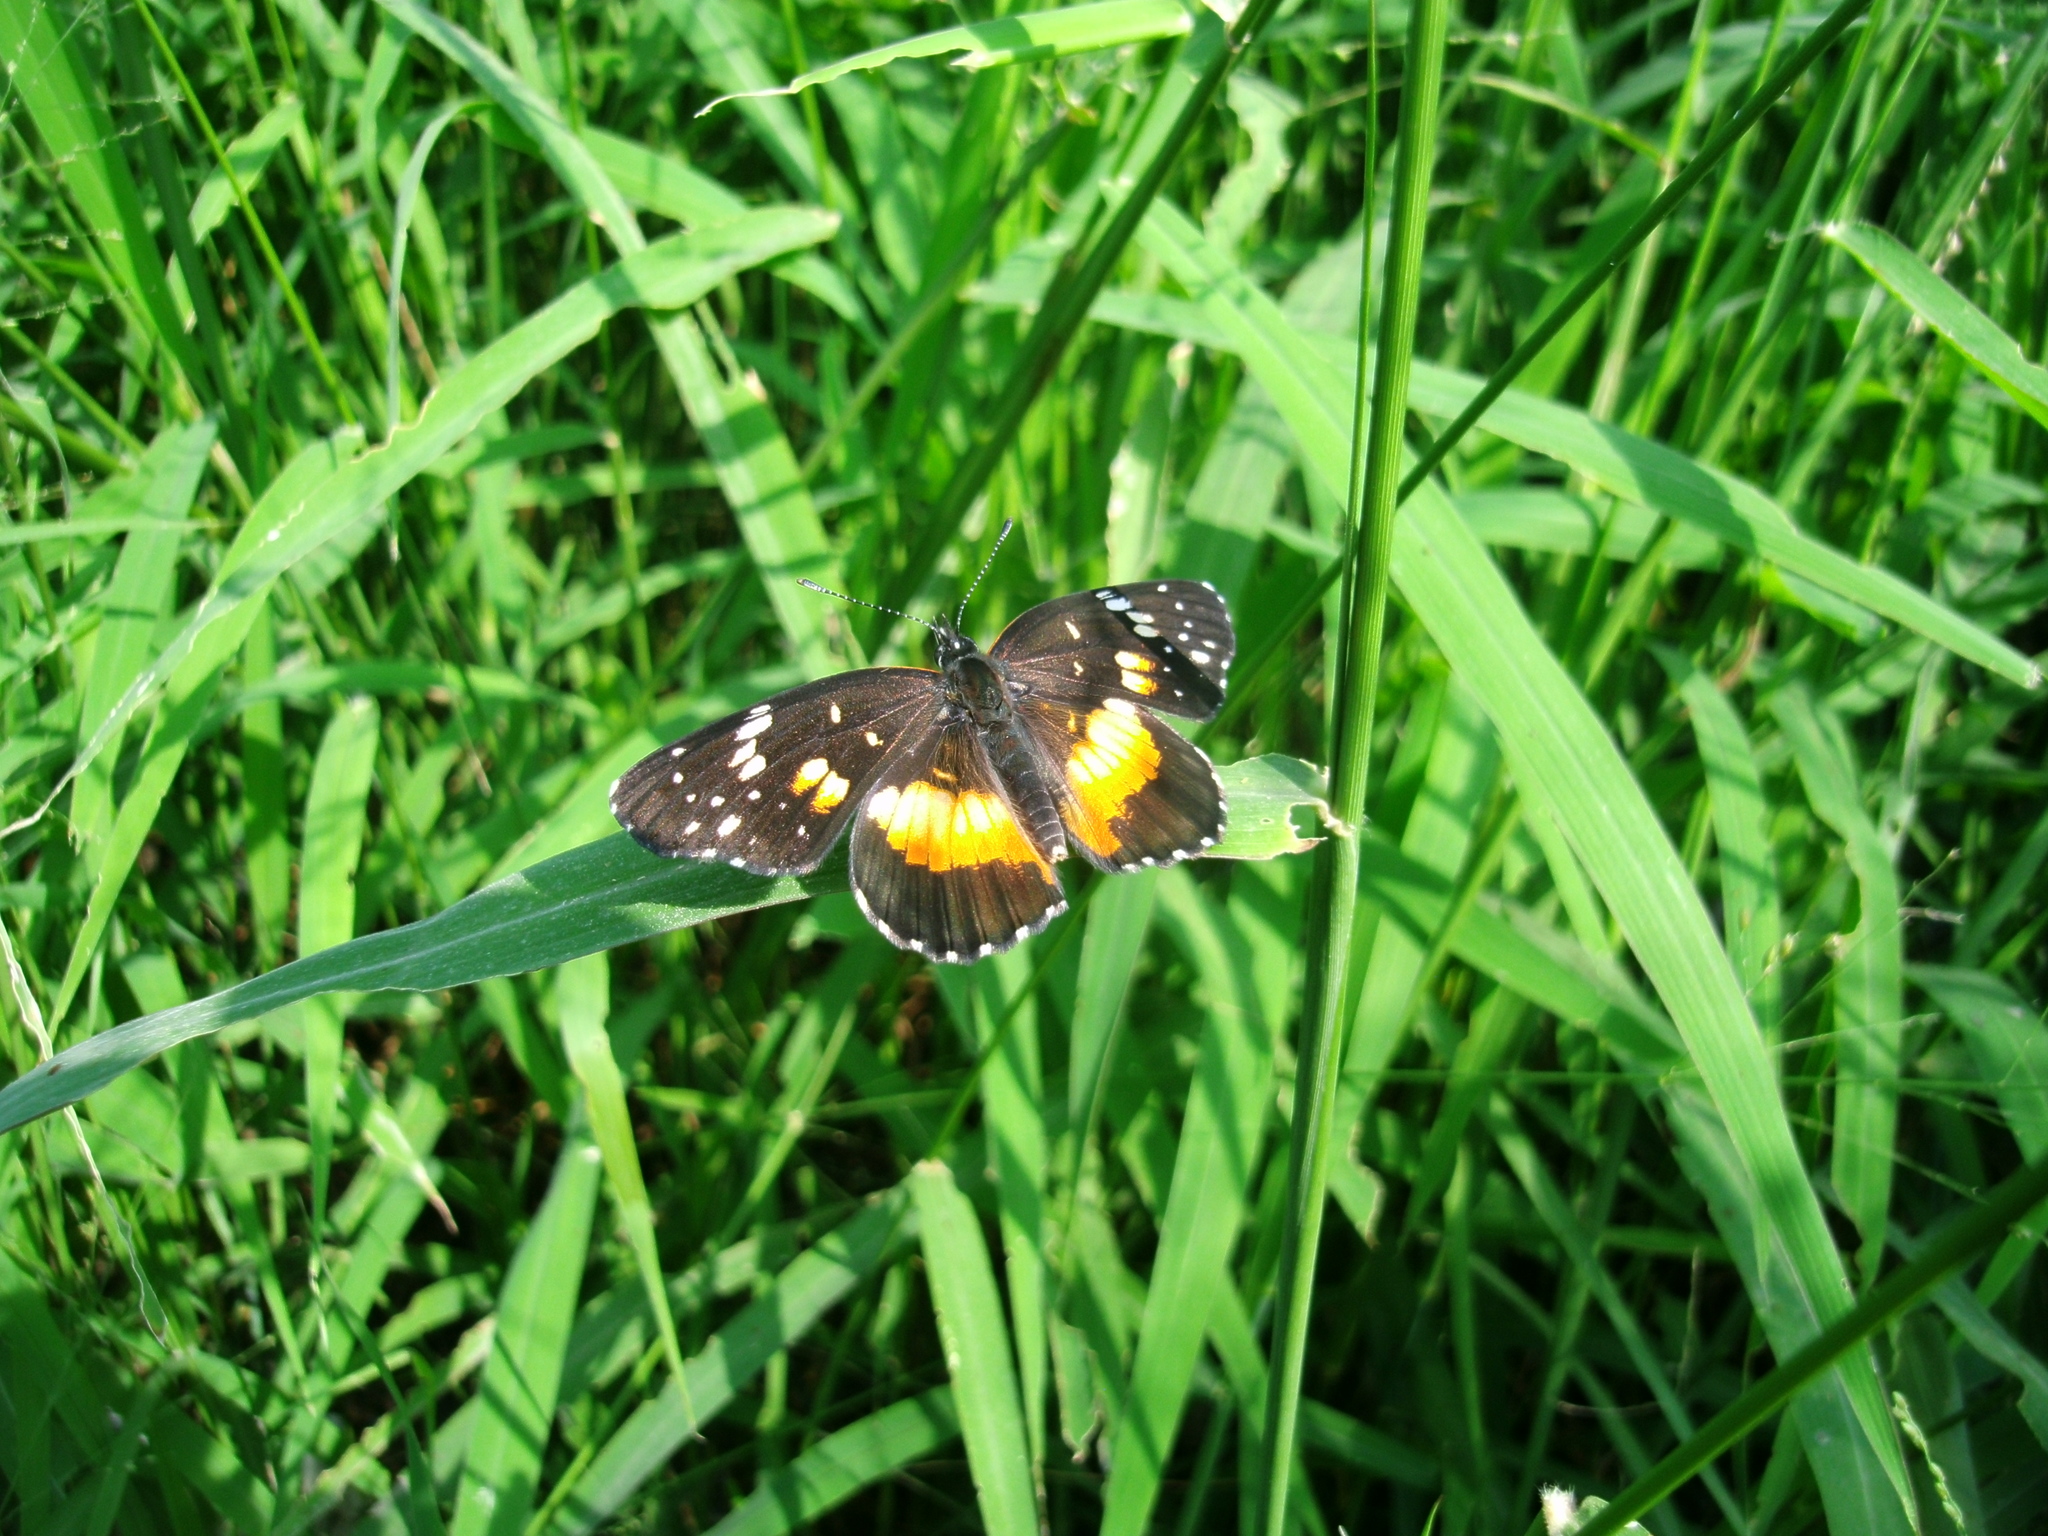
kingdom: Animalia
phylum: Arthropoda
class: Insecta
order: Lepidoptera
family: Nymphalidae
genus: Chlosyne
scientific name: Chlosyne lacinia
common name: Bordered patch
